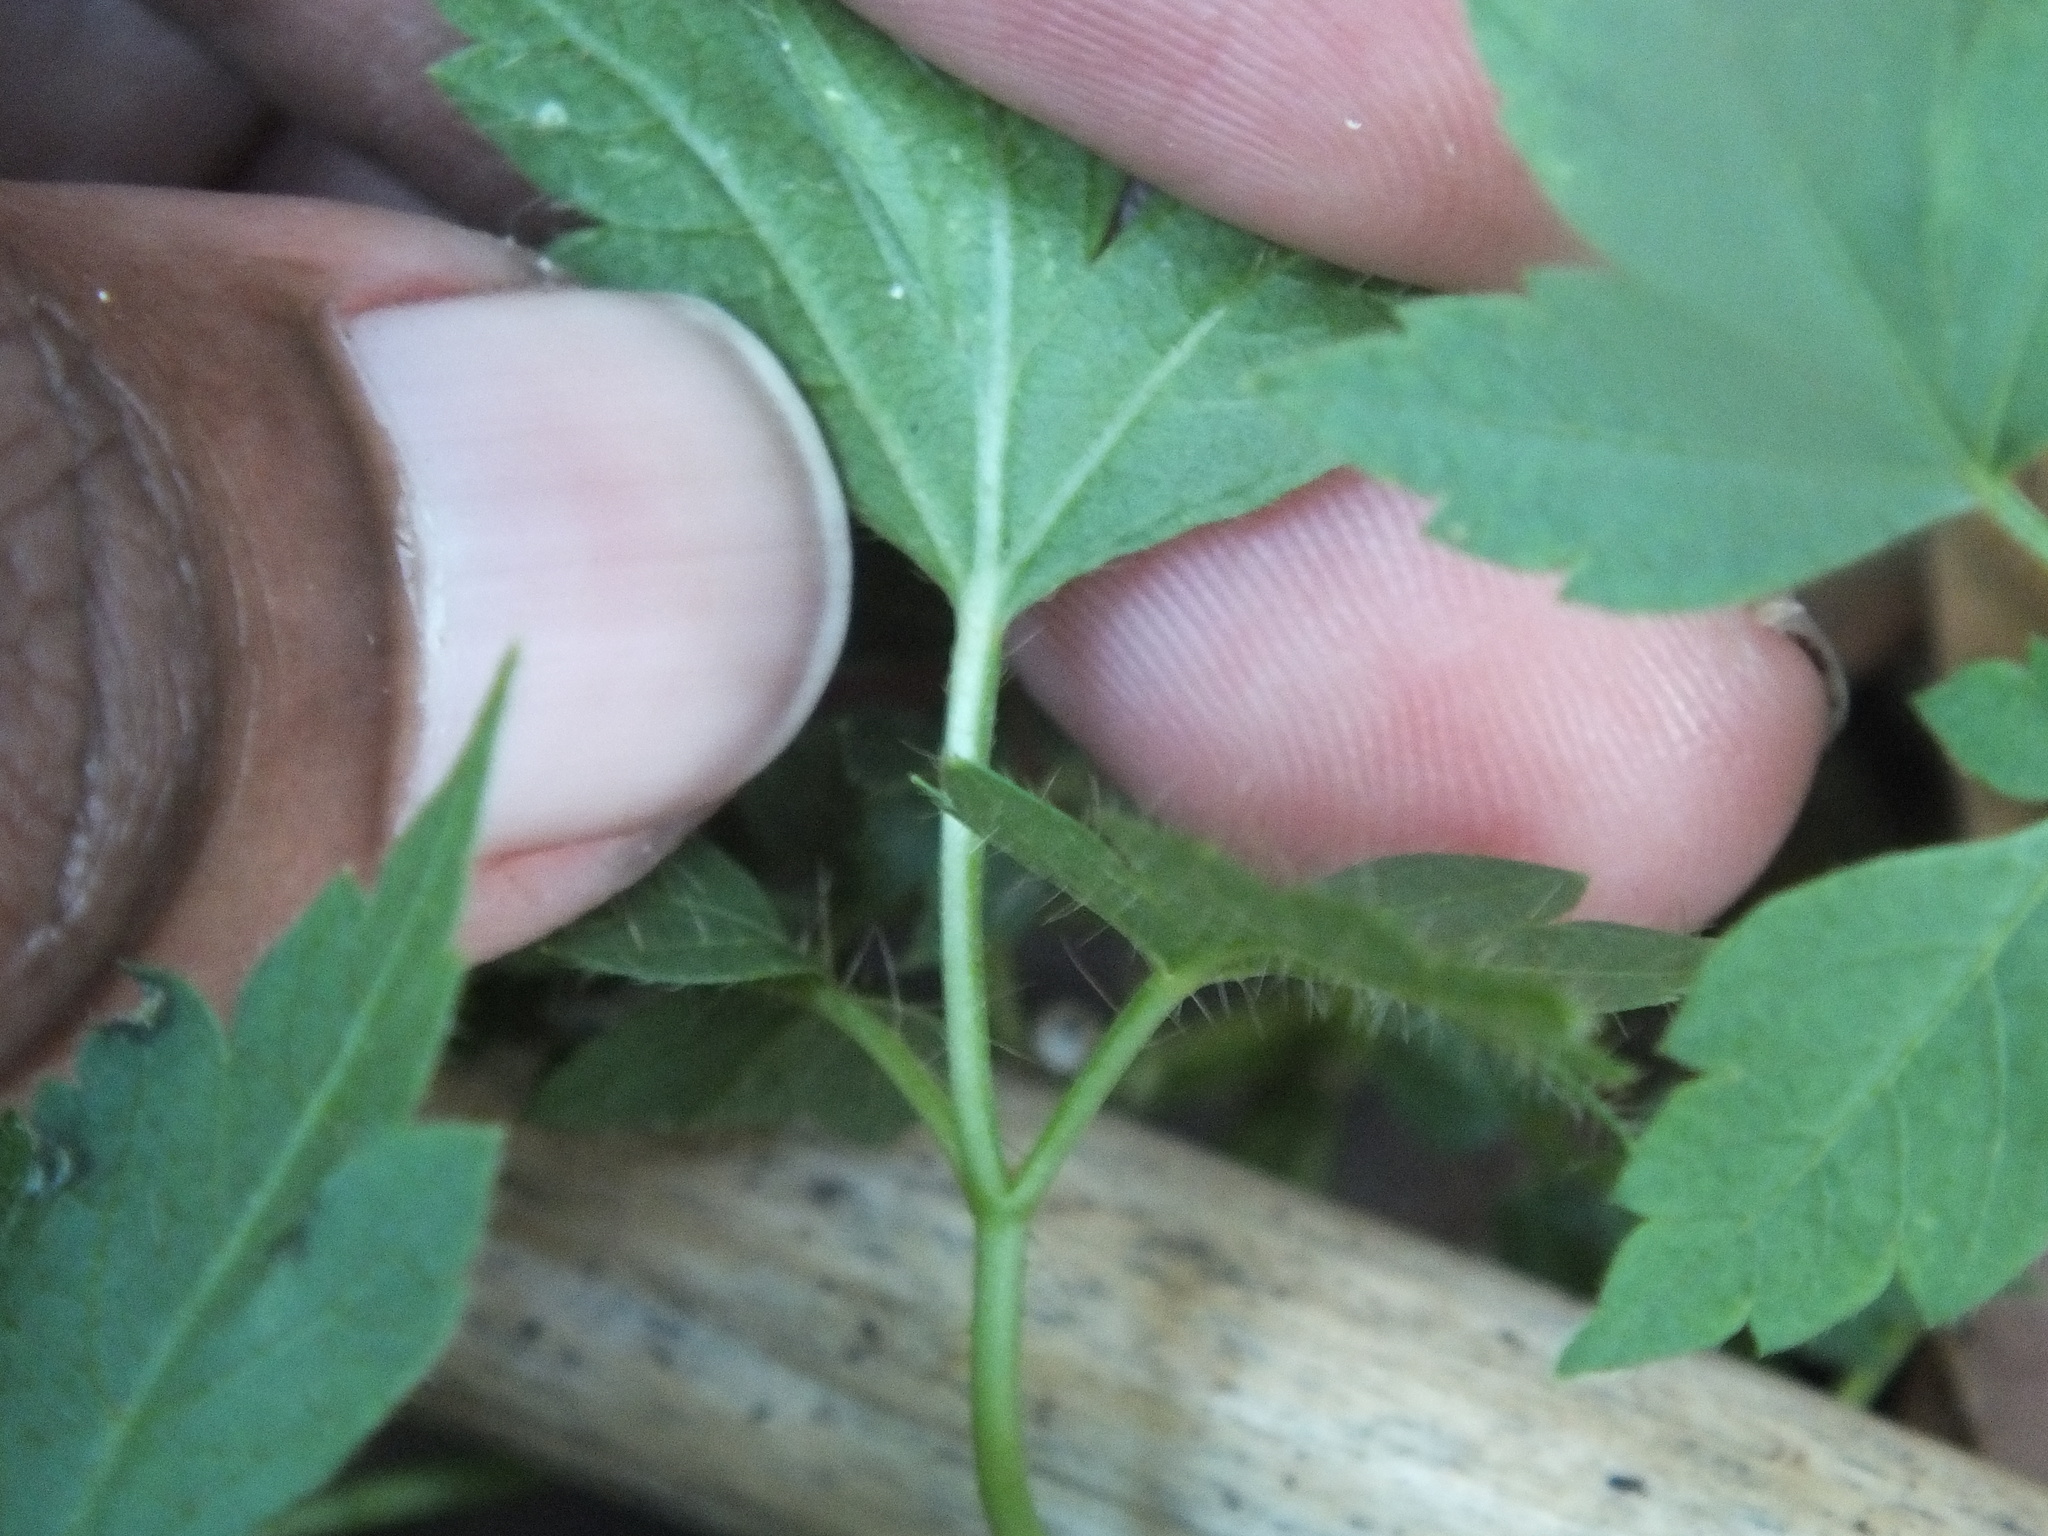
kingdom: Plantae
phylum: Tracheophyta
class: Magnoliopsida
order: Sapindales
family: Sapindaceae
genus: Cardiospermum
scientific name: Cardiospermum grandiflorum
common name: Balloon vine
